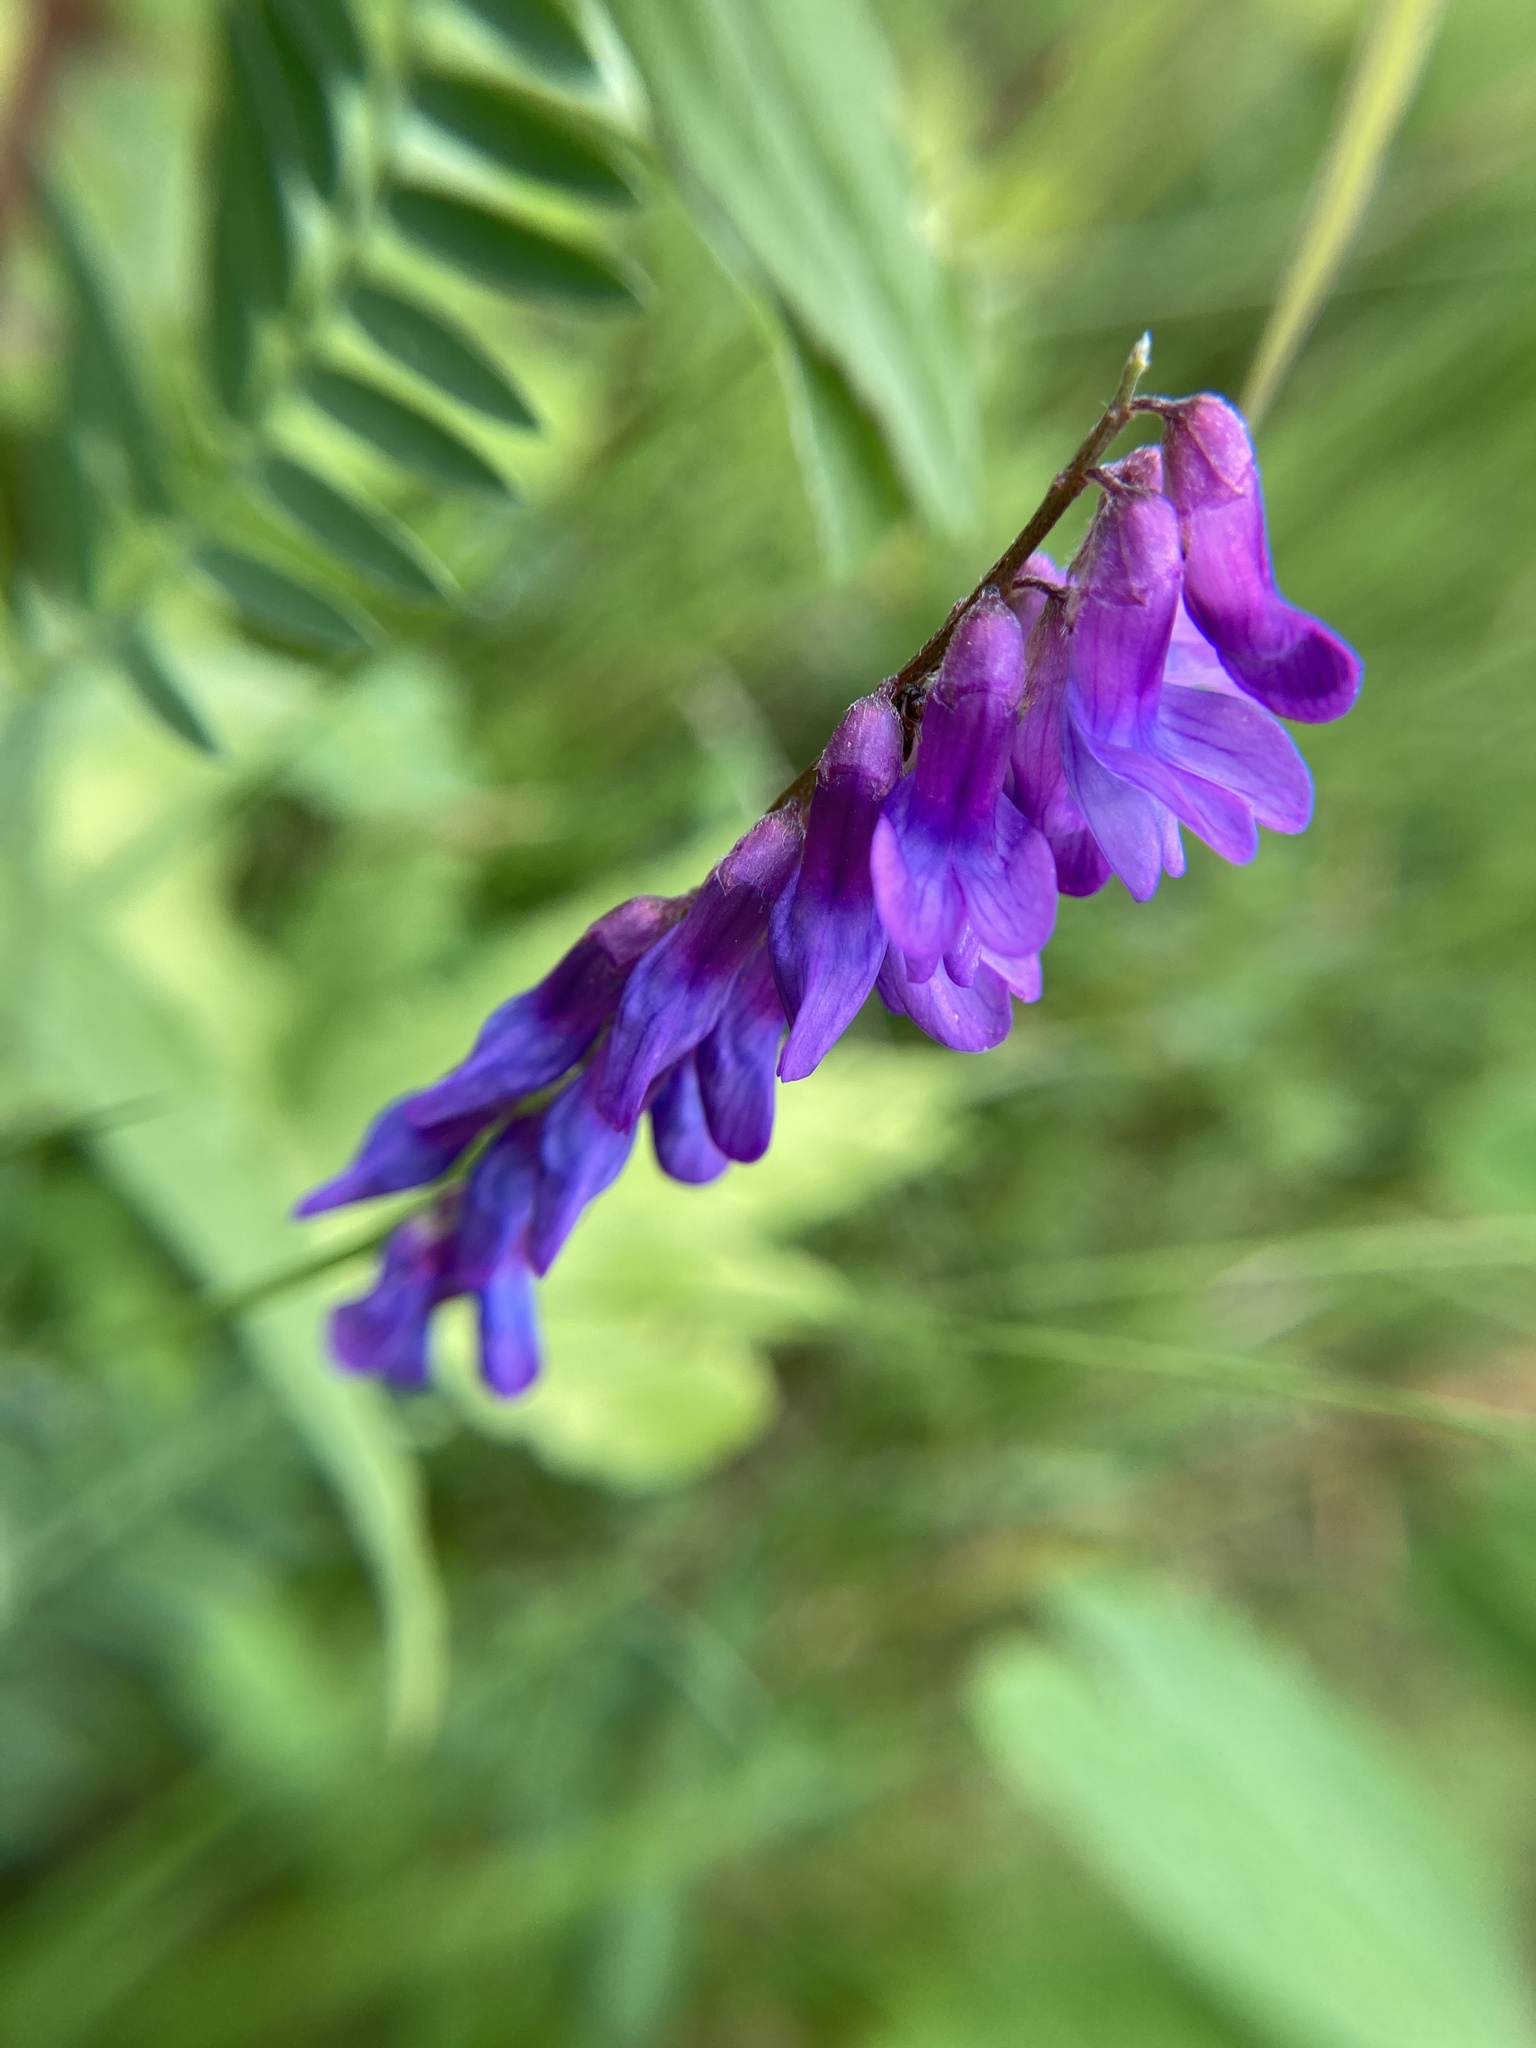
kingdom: Plantae
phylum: Tracheophyta
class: Magnoliopsida
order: Fabales
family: Fabaceae
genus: Vicia
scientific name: Vicia cracca
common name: Bird vetch
